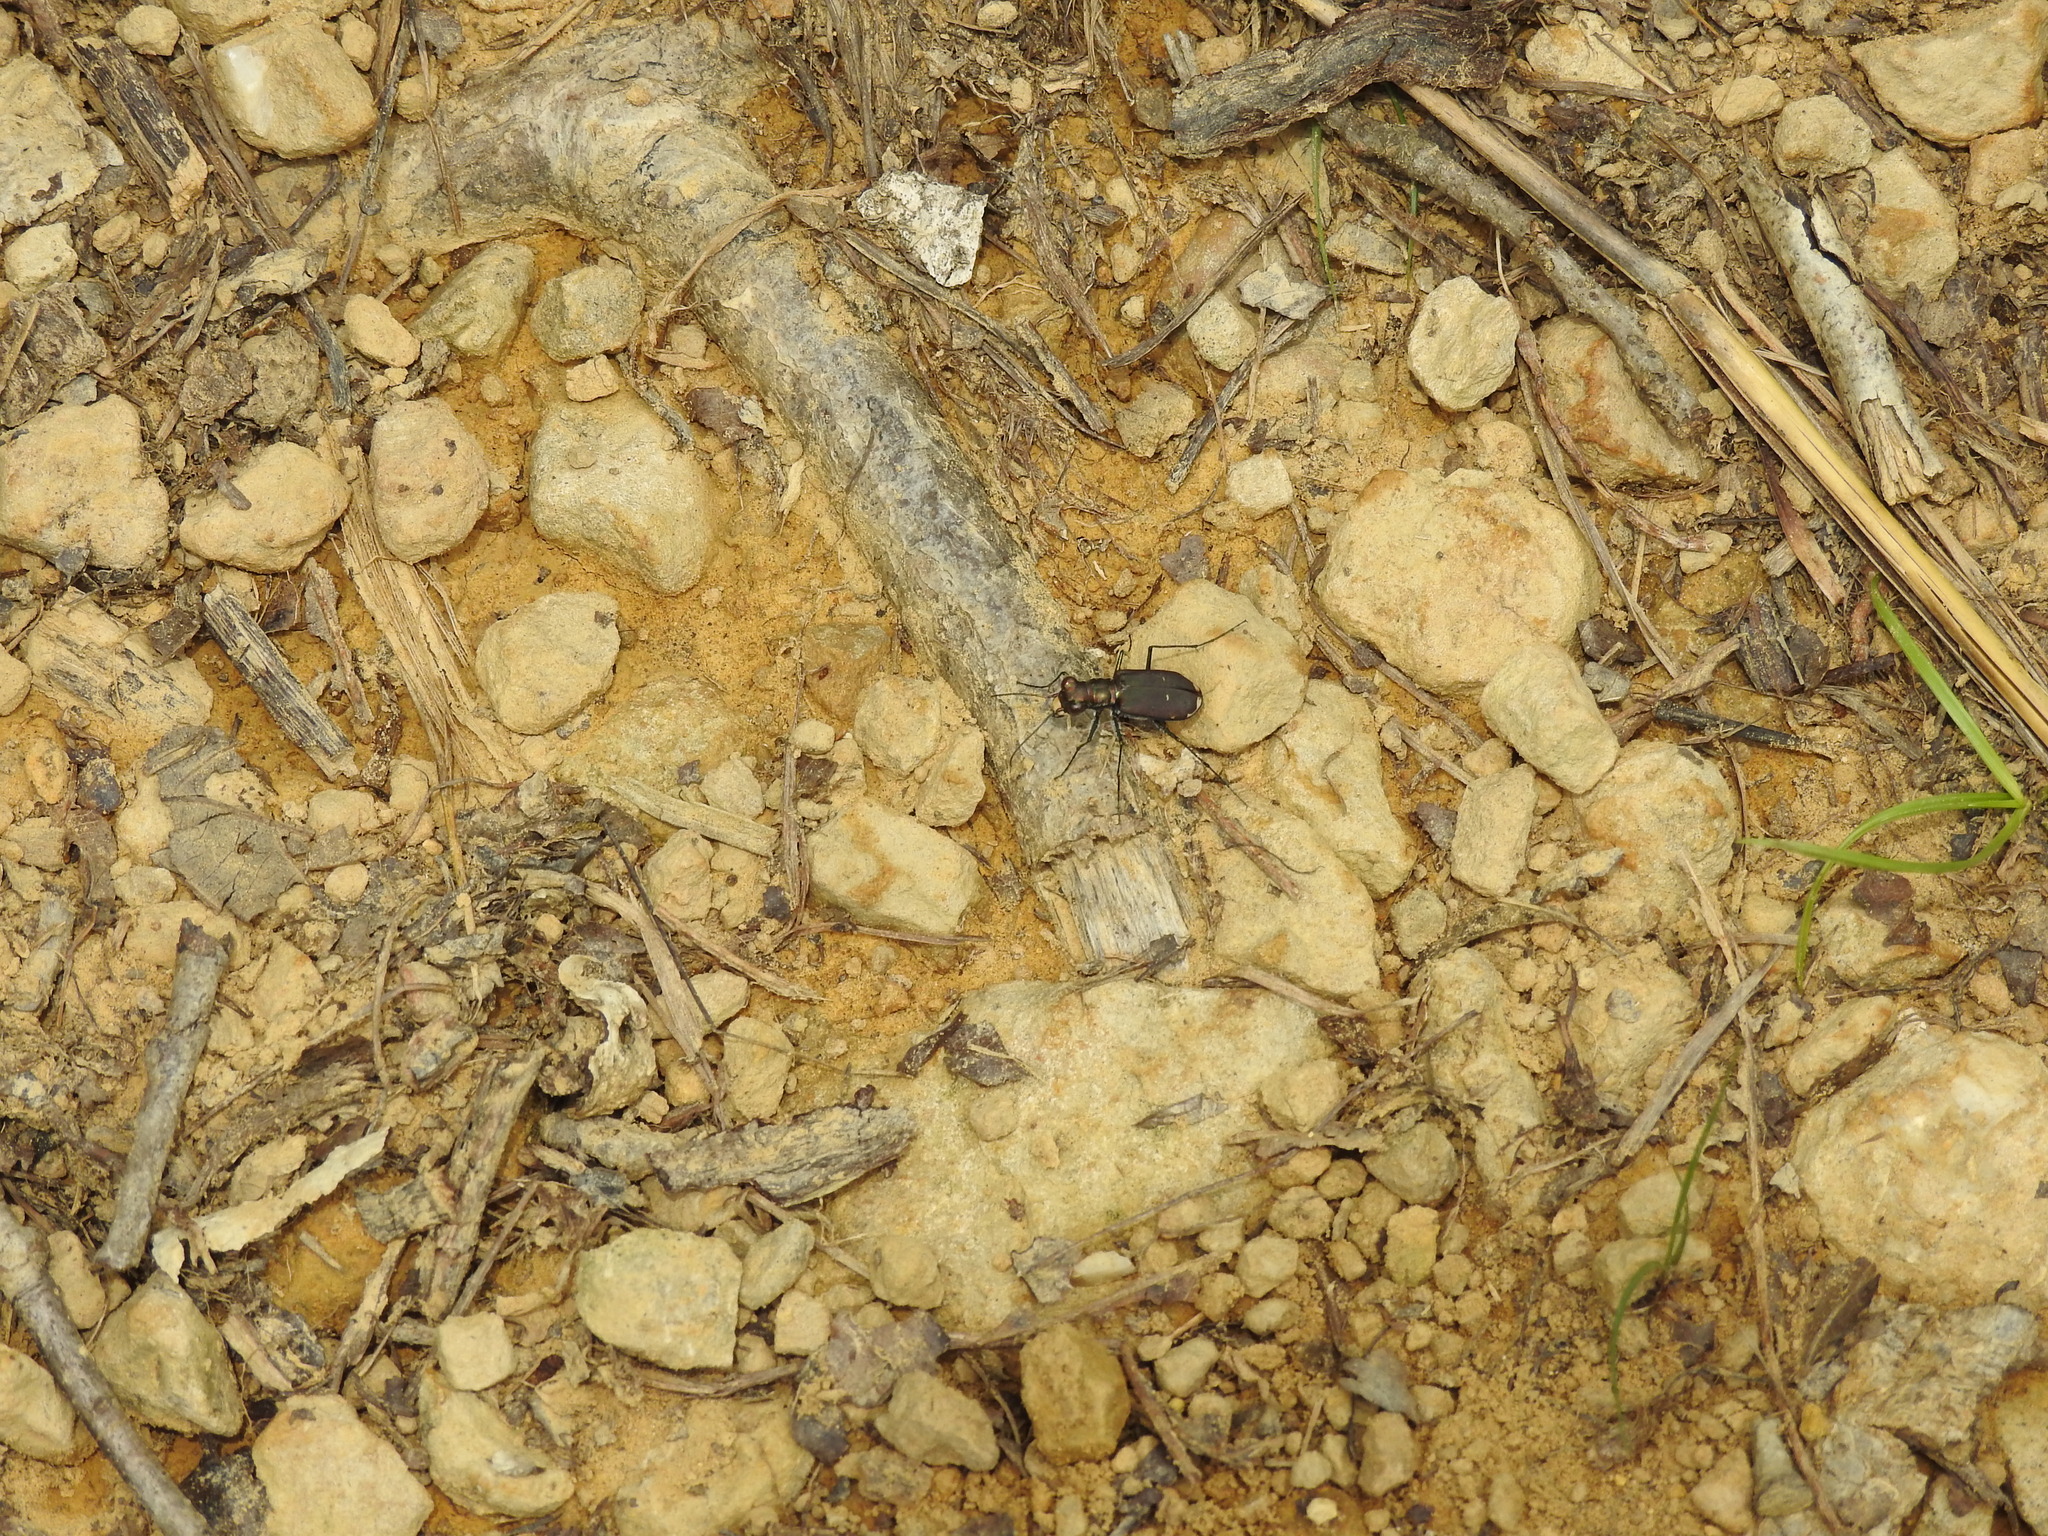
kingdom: Animalia
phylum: Arthropoda
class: Insecta
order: Coleoptera
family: Carabidae
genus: Cicindela
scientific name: Cicindela rufiventris
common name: Eastern red-bellied tiger beetle
